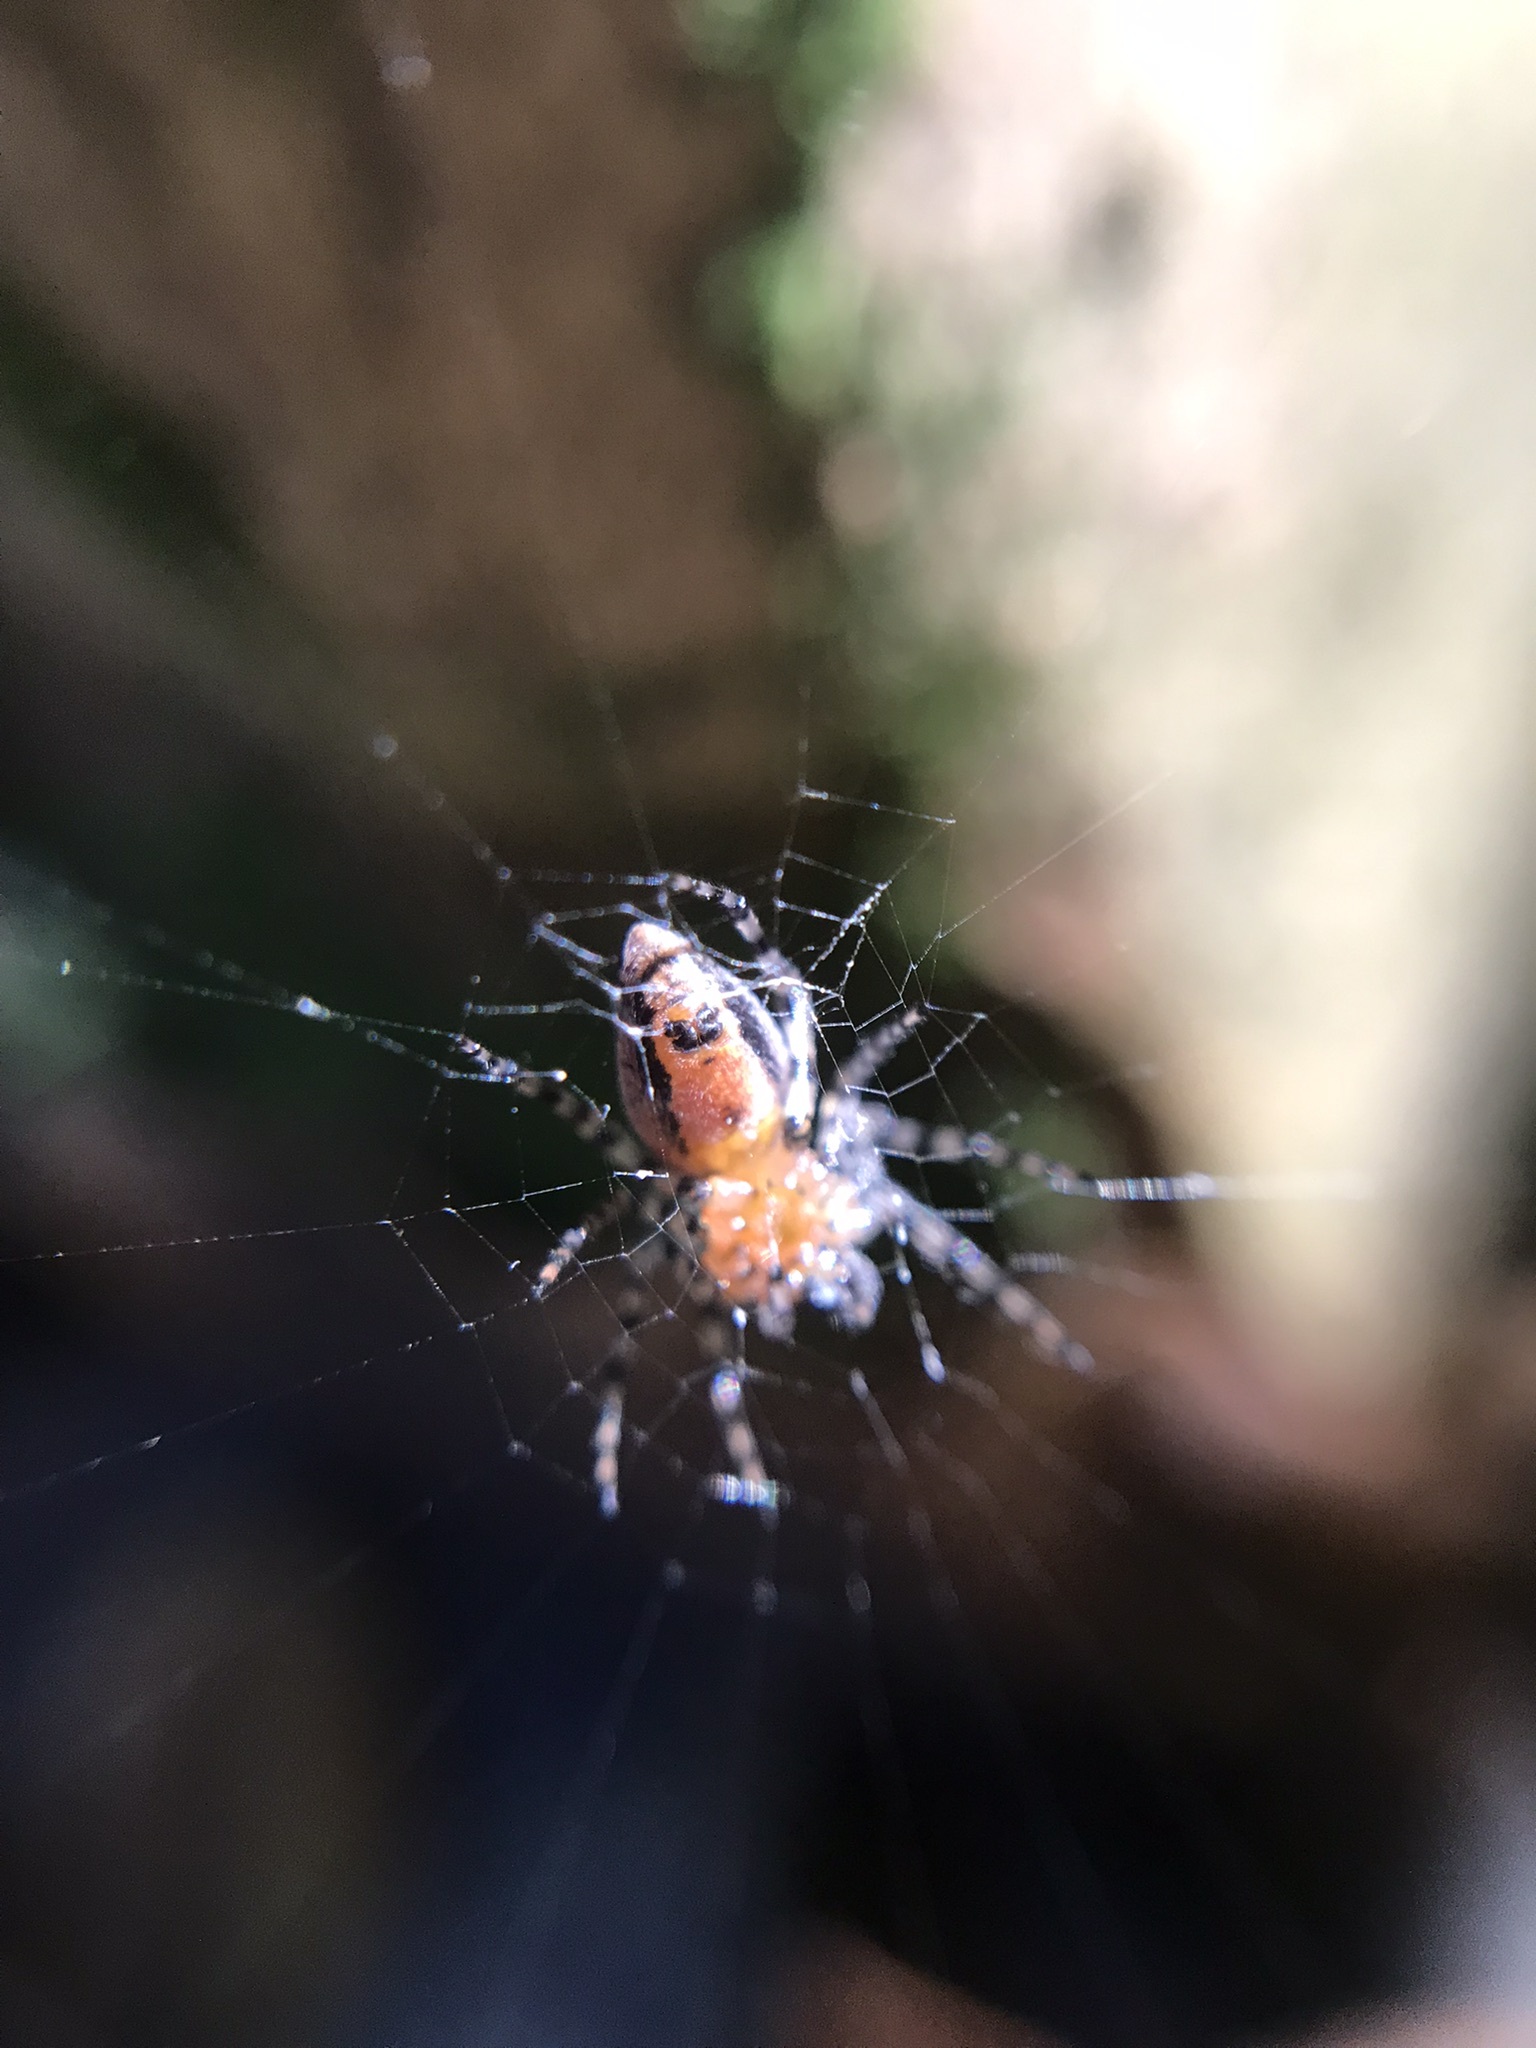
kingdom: Animalia
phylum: Arthropoda
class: Arachnida
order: Araneae
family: Araneidae
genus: Alpaida
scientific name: Alpaida gallardoi
